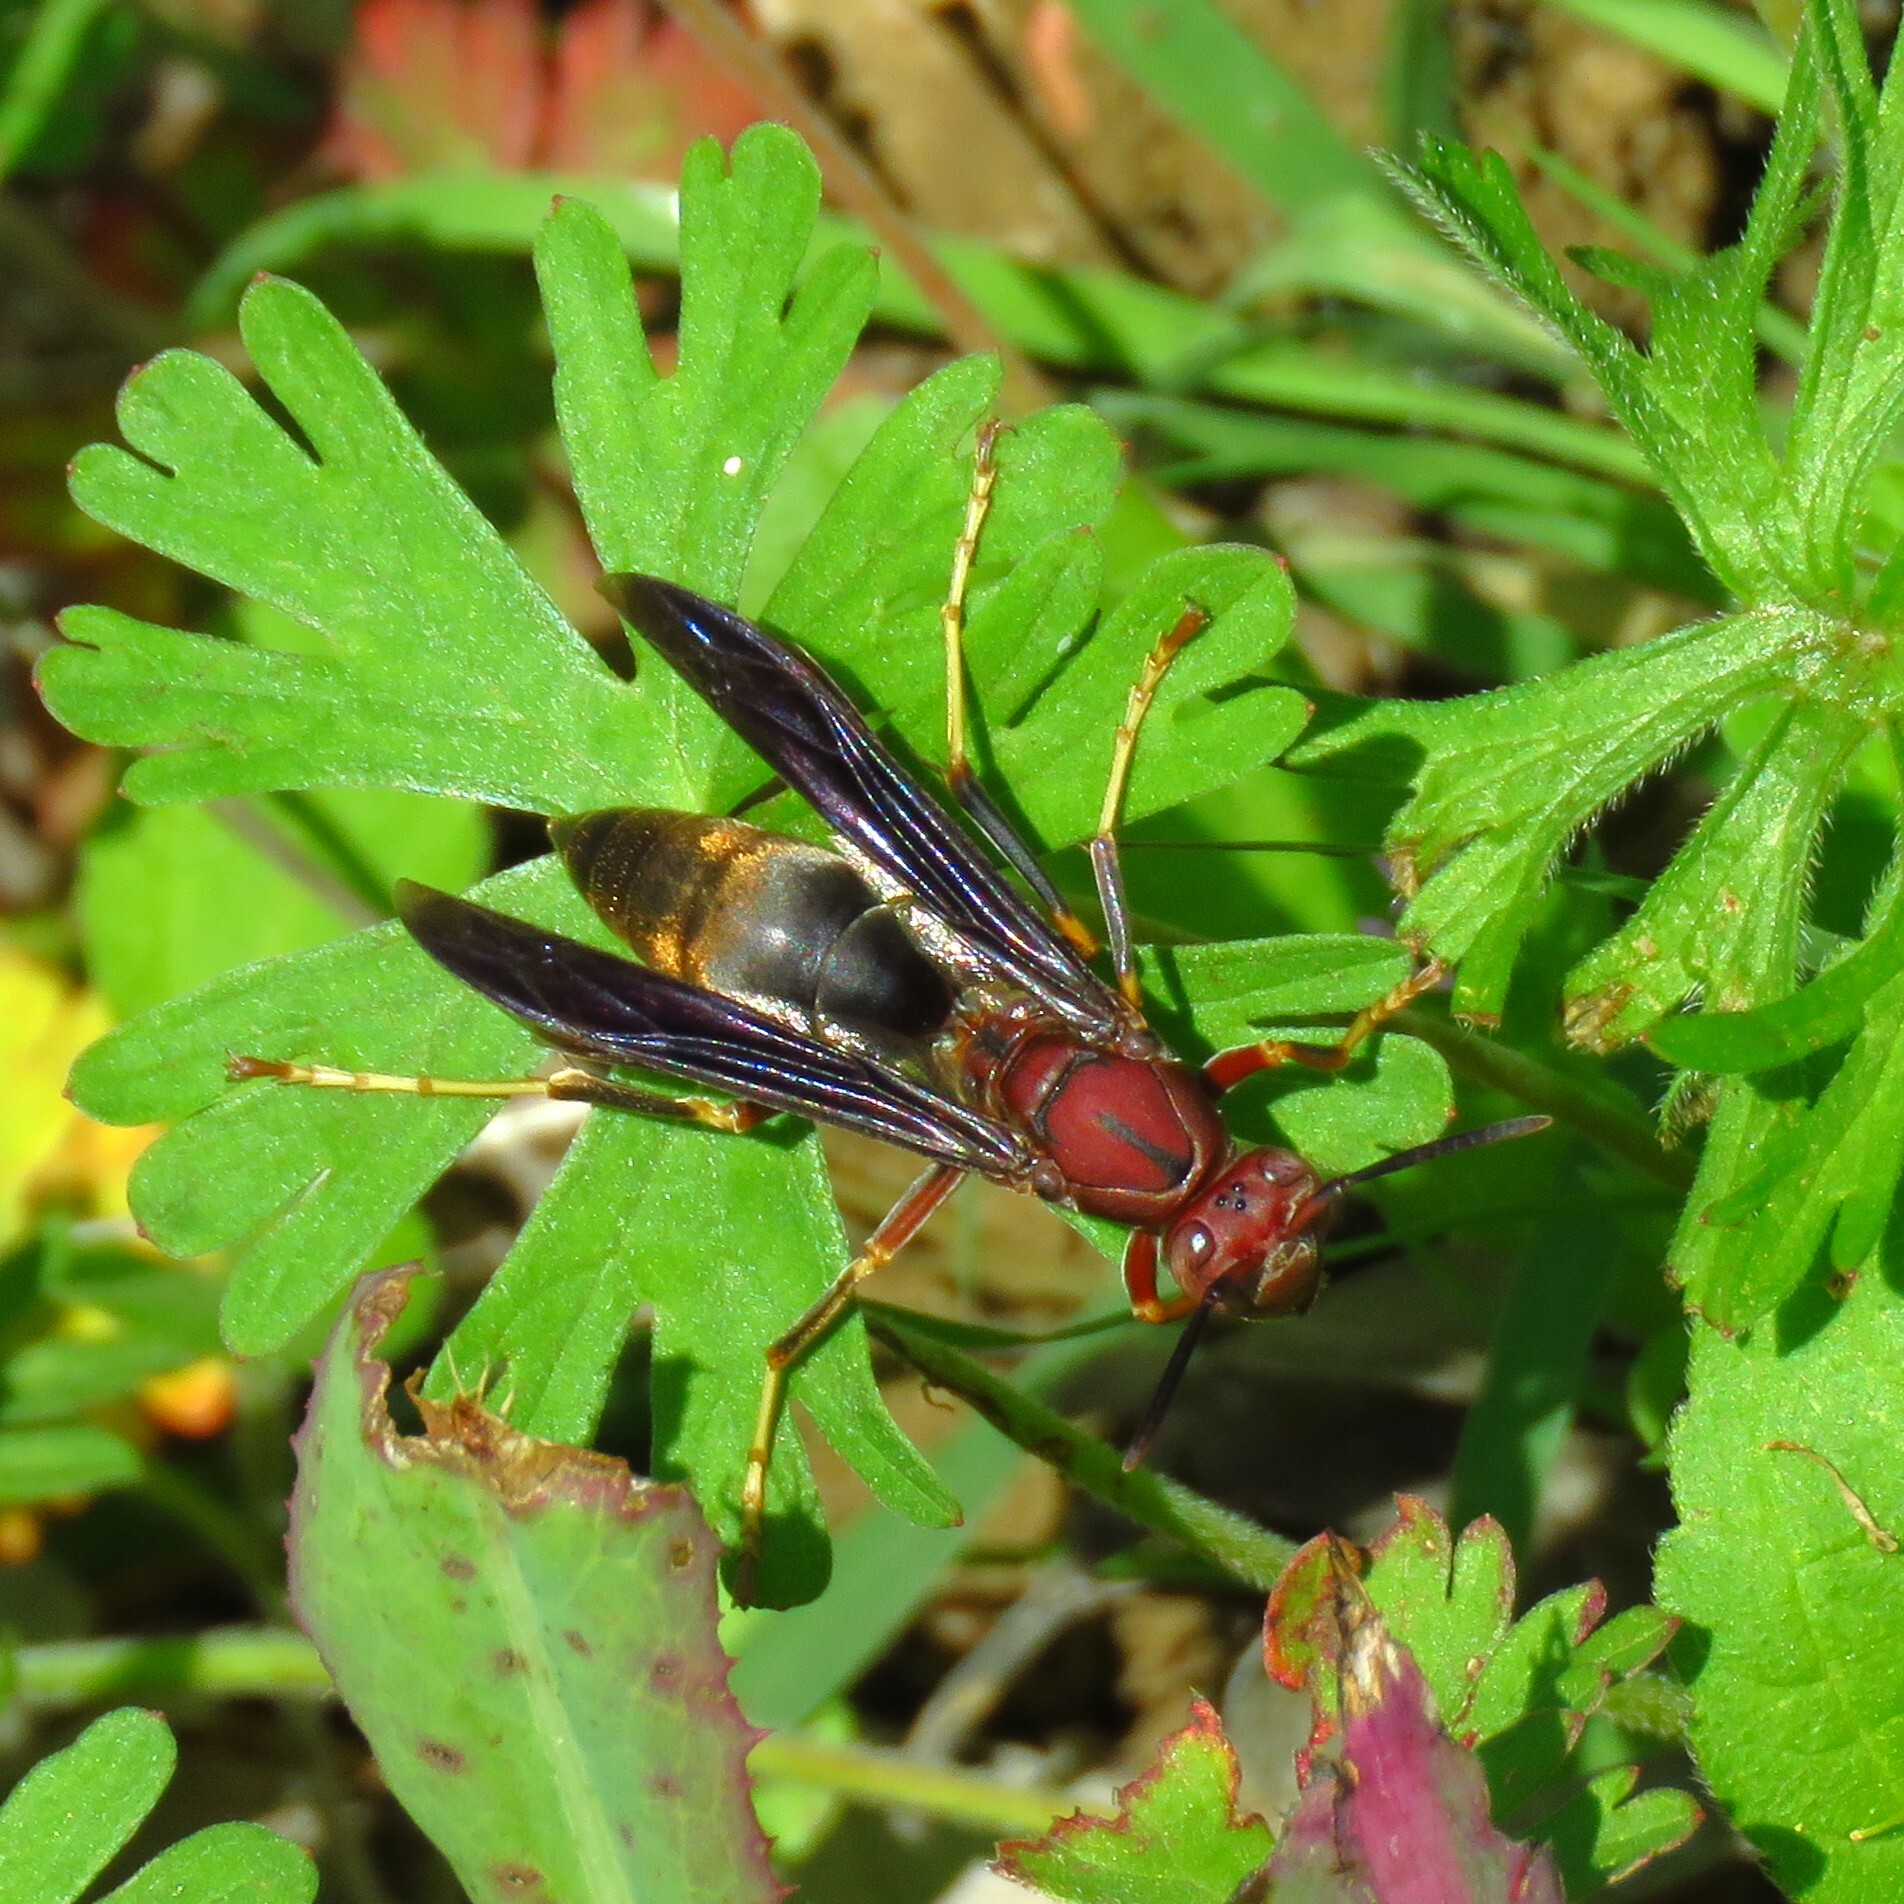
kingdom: Animalia
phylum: Arthropoda
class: Insecta
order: Hymenoptera
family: Eumenidae
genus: Polistes
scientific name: Polistes metricus
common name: Metric paper wasp
